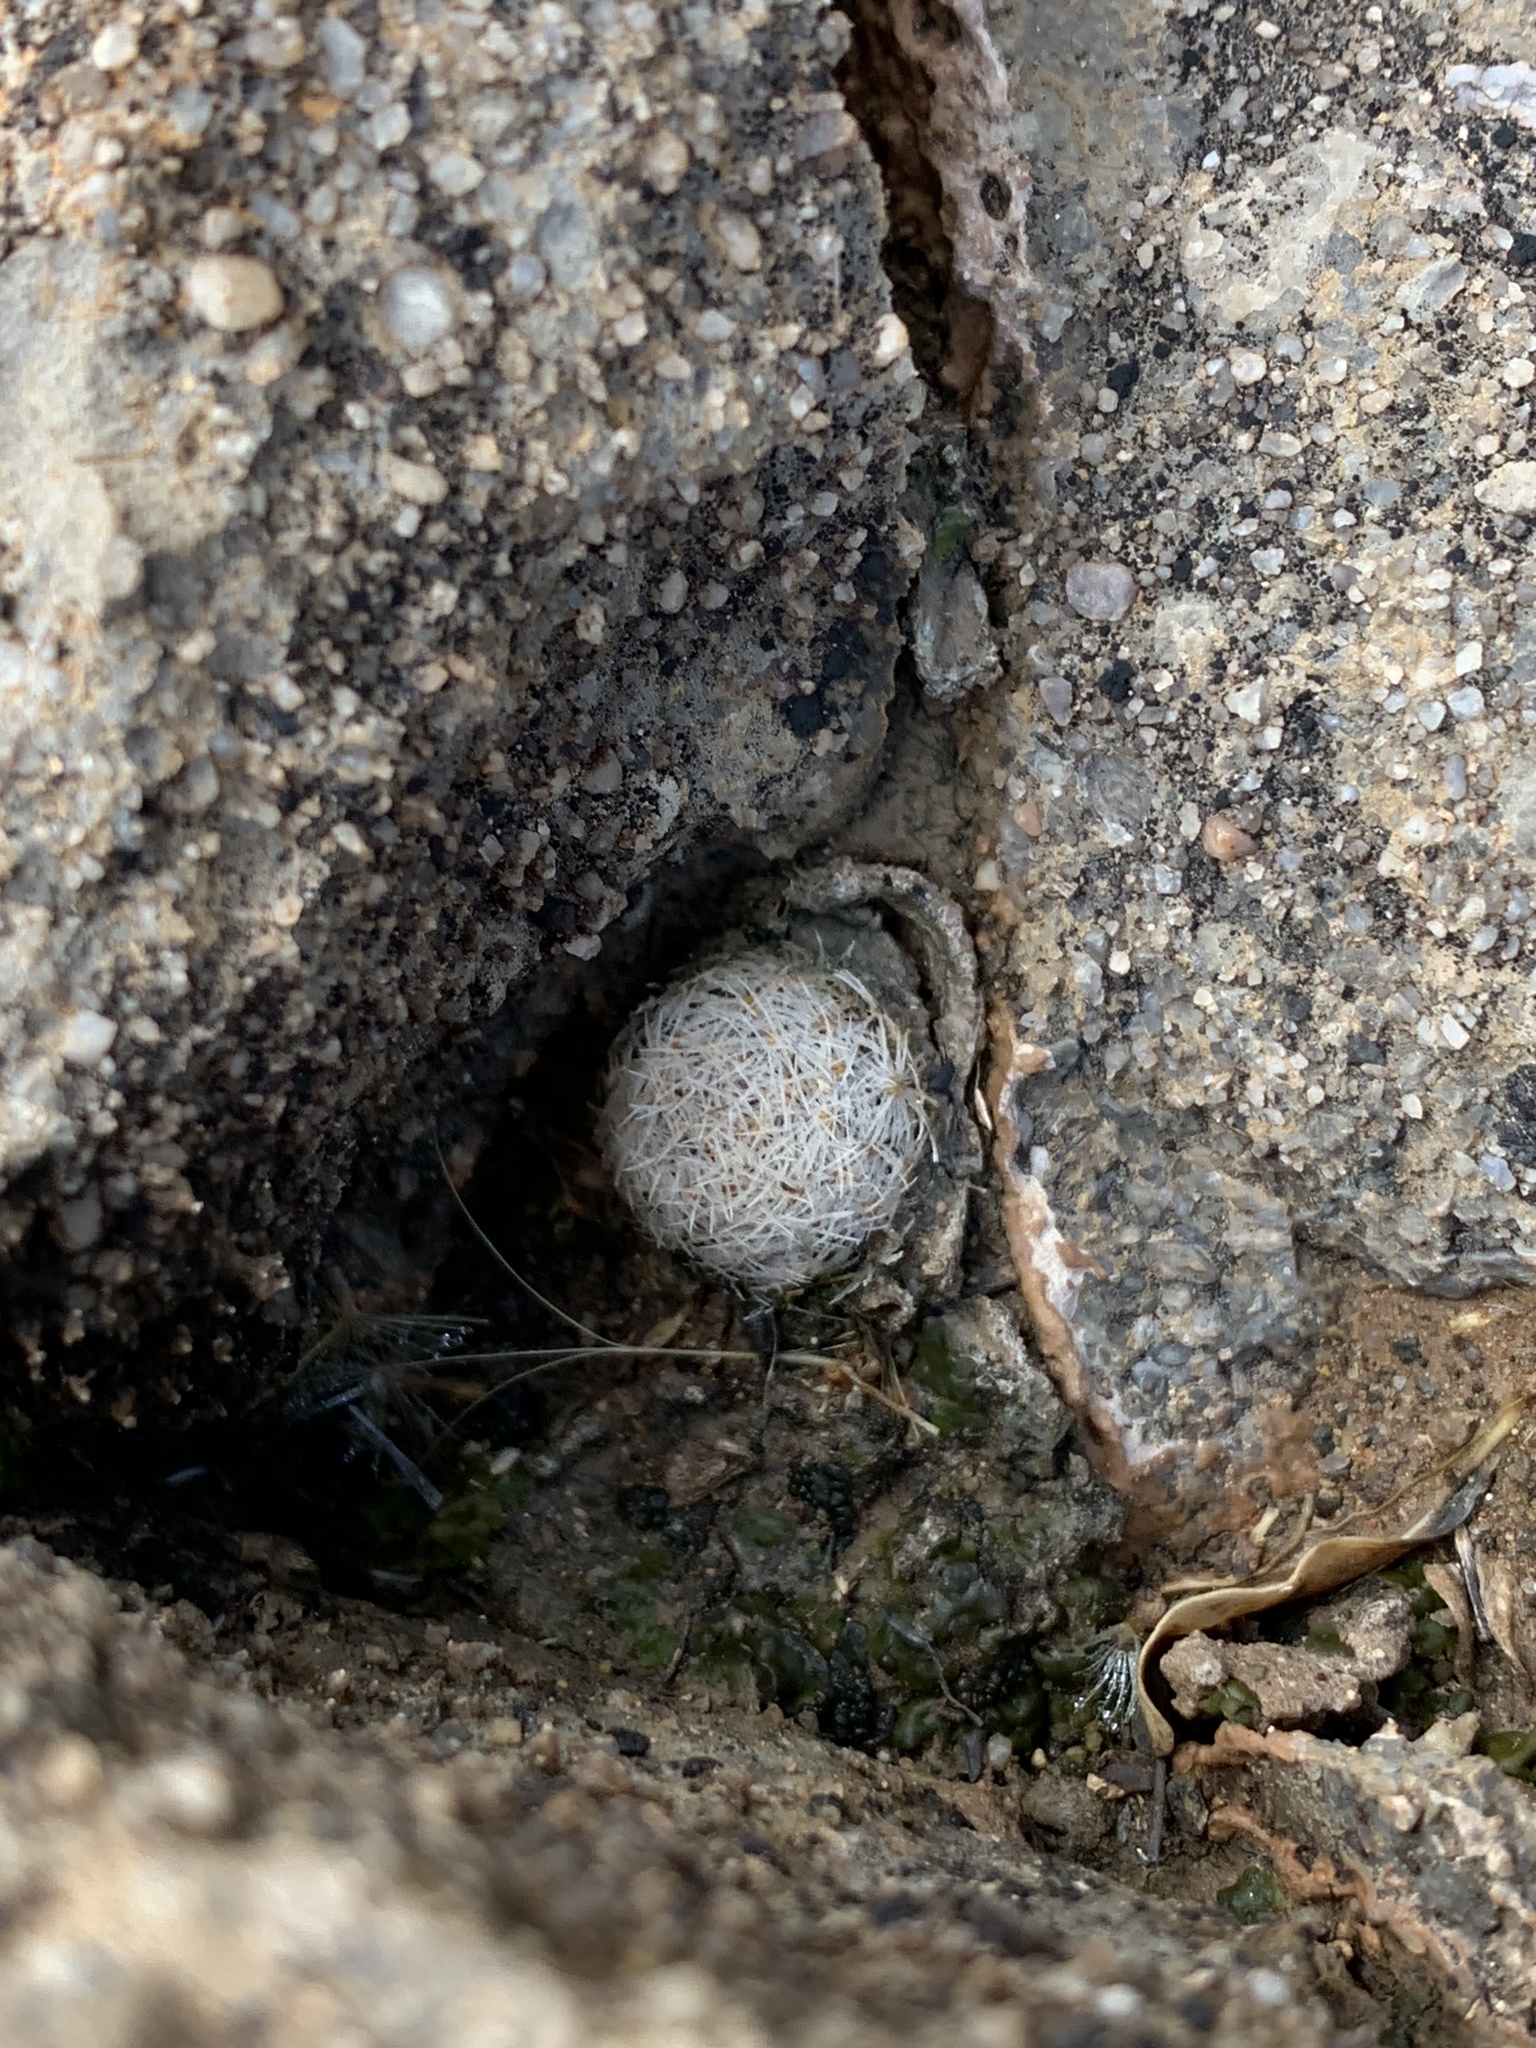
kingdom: Plantae
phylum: Tracheophyta
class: Magnoliopsida
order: Caryophyllales
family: Cactaceae
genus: Mammillaria
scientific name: Mammillaria lasiacantha
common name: Lace-spine nipple cactus
